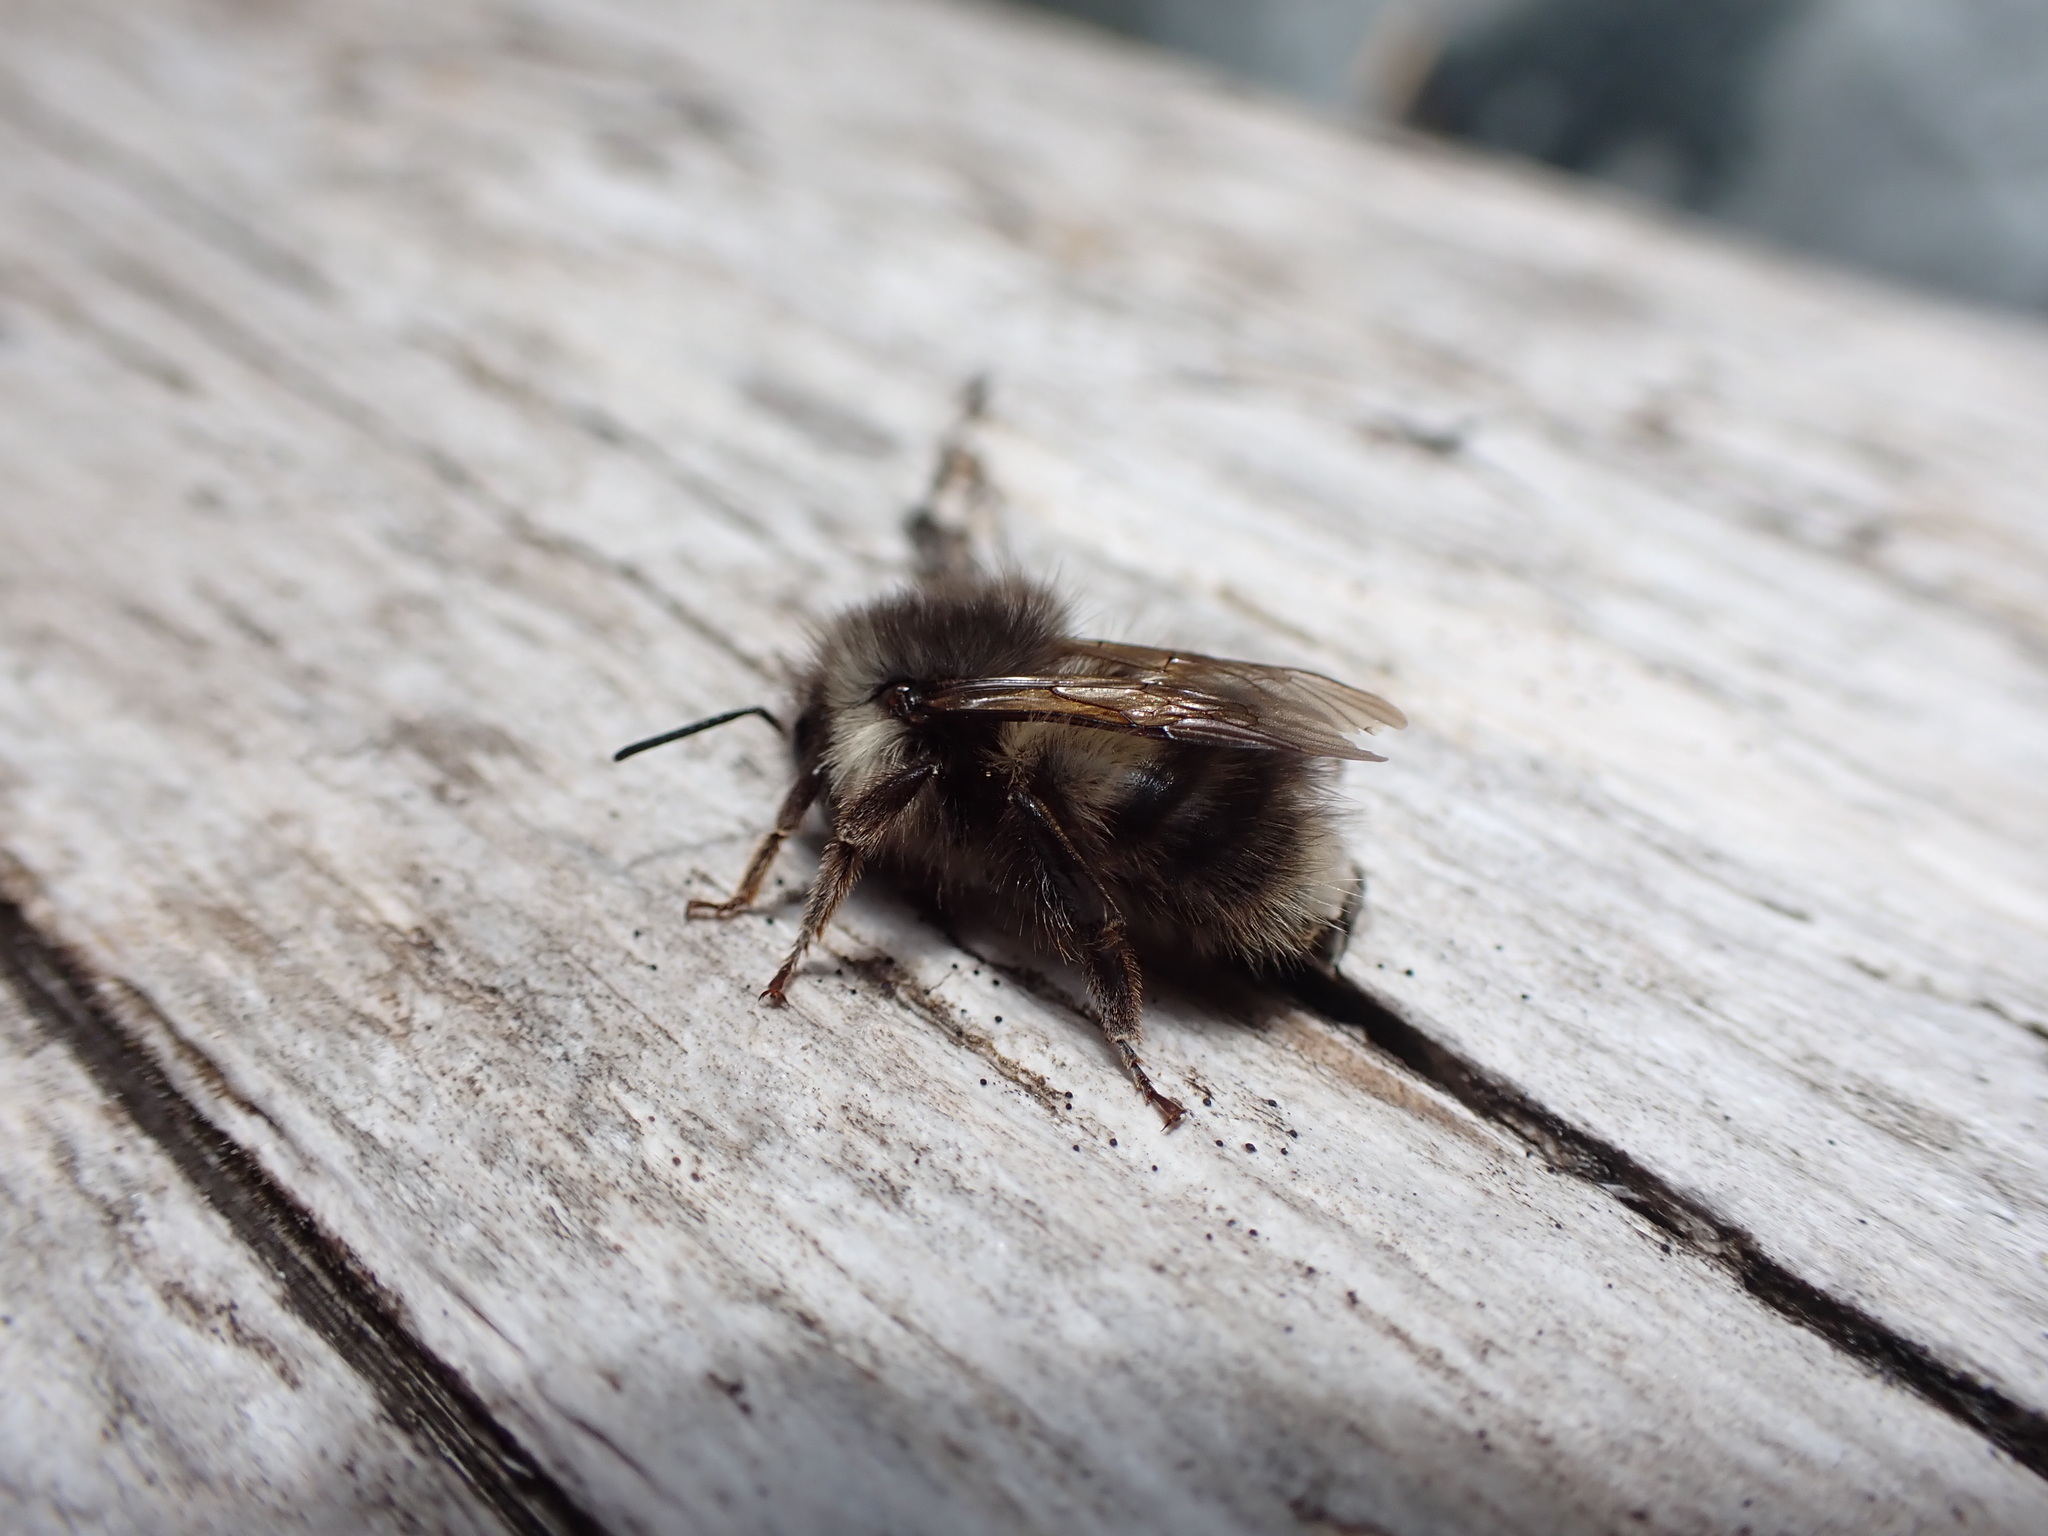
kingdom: Animalia
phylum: Arthropoda
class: Insecta
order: Hymenoptera
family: Apidae
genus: Bombus
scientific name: Bombus sitkensis
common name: Sitka bumble bee
